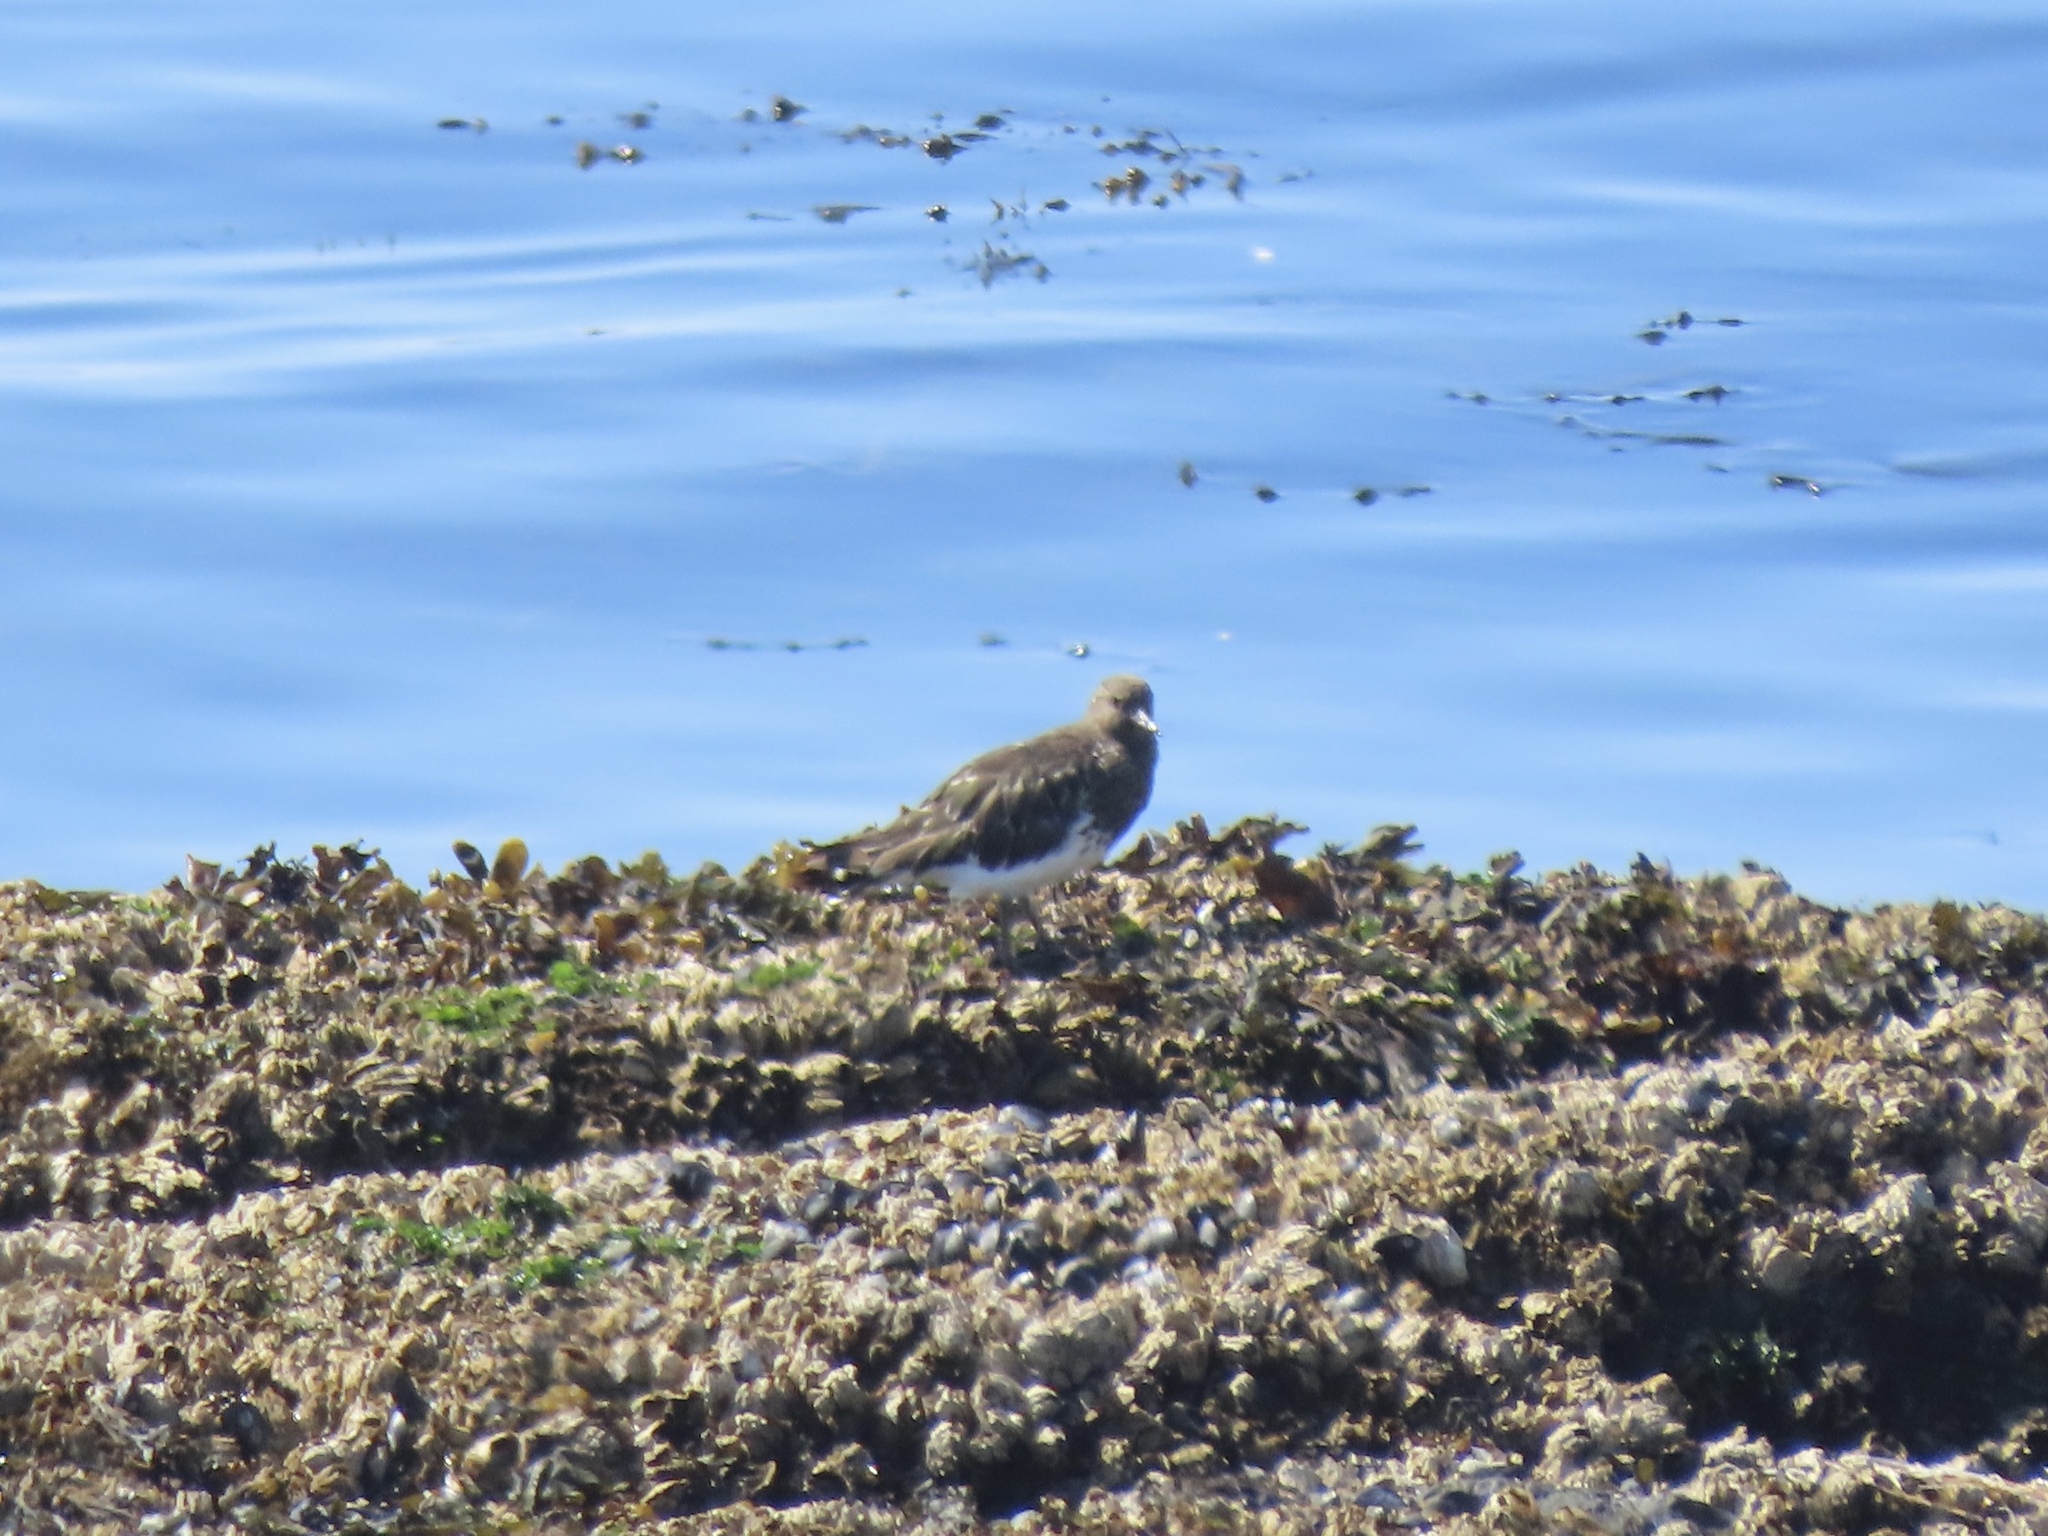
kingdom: Animalia
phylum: Chordata
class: Aves
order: Charadriiformes
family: Scolopacidae
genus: Arenaria
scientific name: Arenaria melanocephala
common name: Black turnstone
